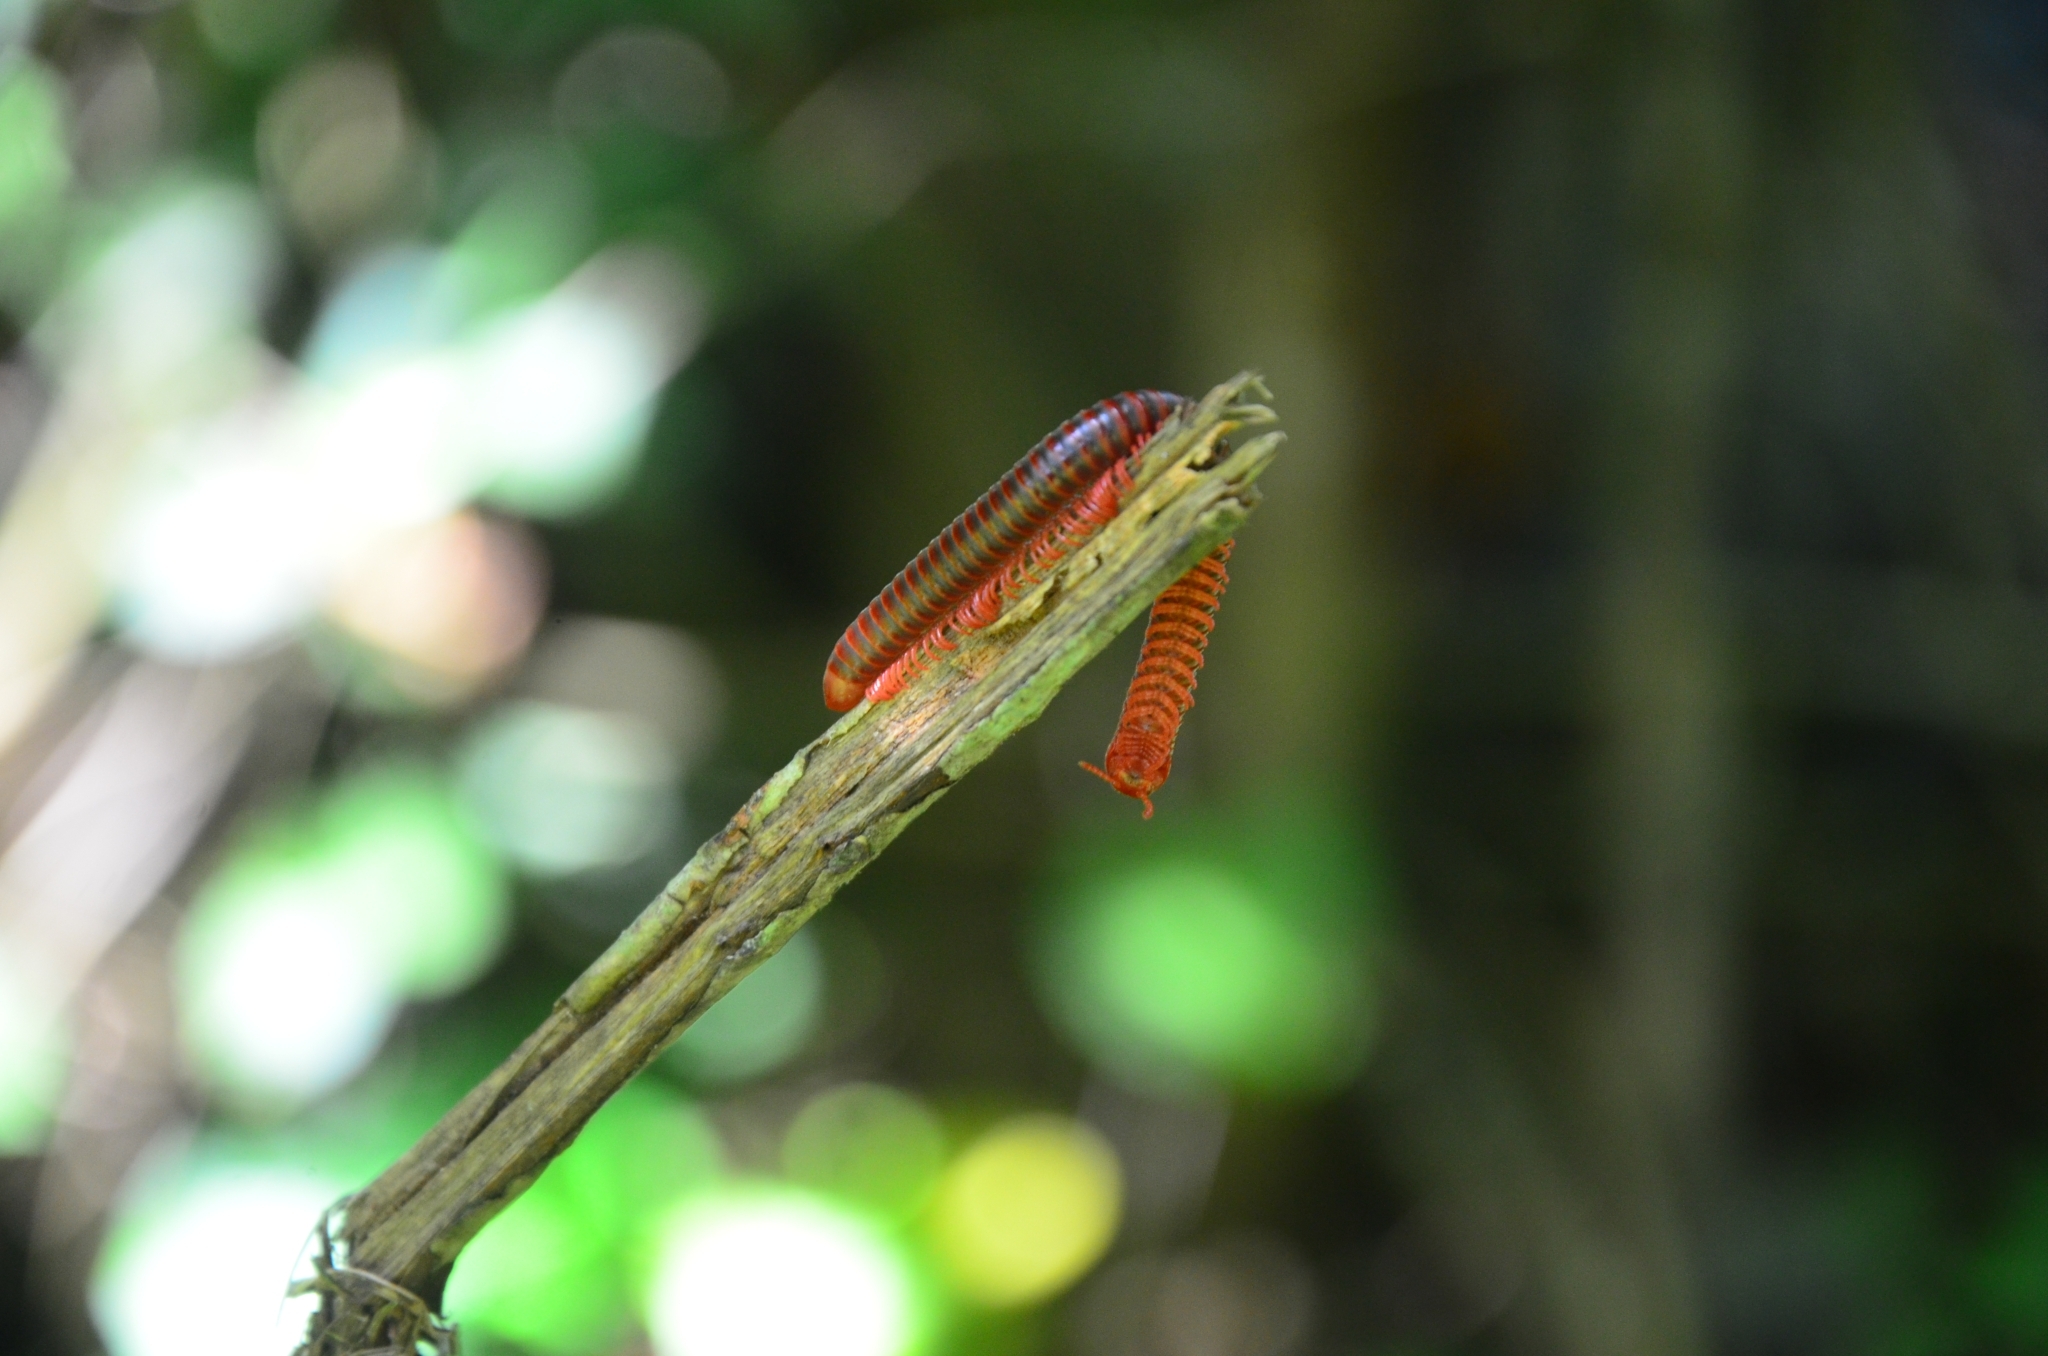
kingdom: Animalia
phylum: Arthropoda
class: Diplopoda
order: Spirobolida
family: Pachybolidae
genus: Trigoniulus
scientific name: Trigoniulus corallinus
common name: Millipede
